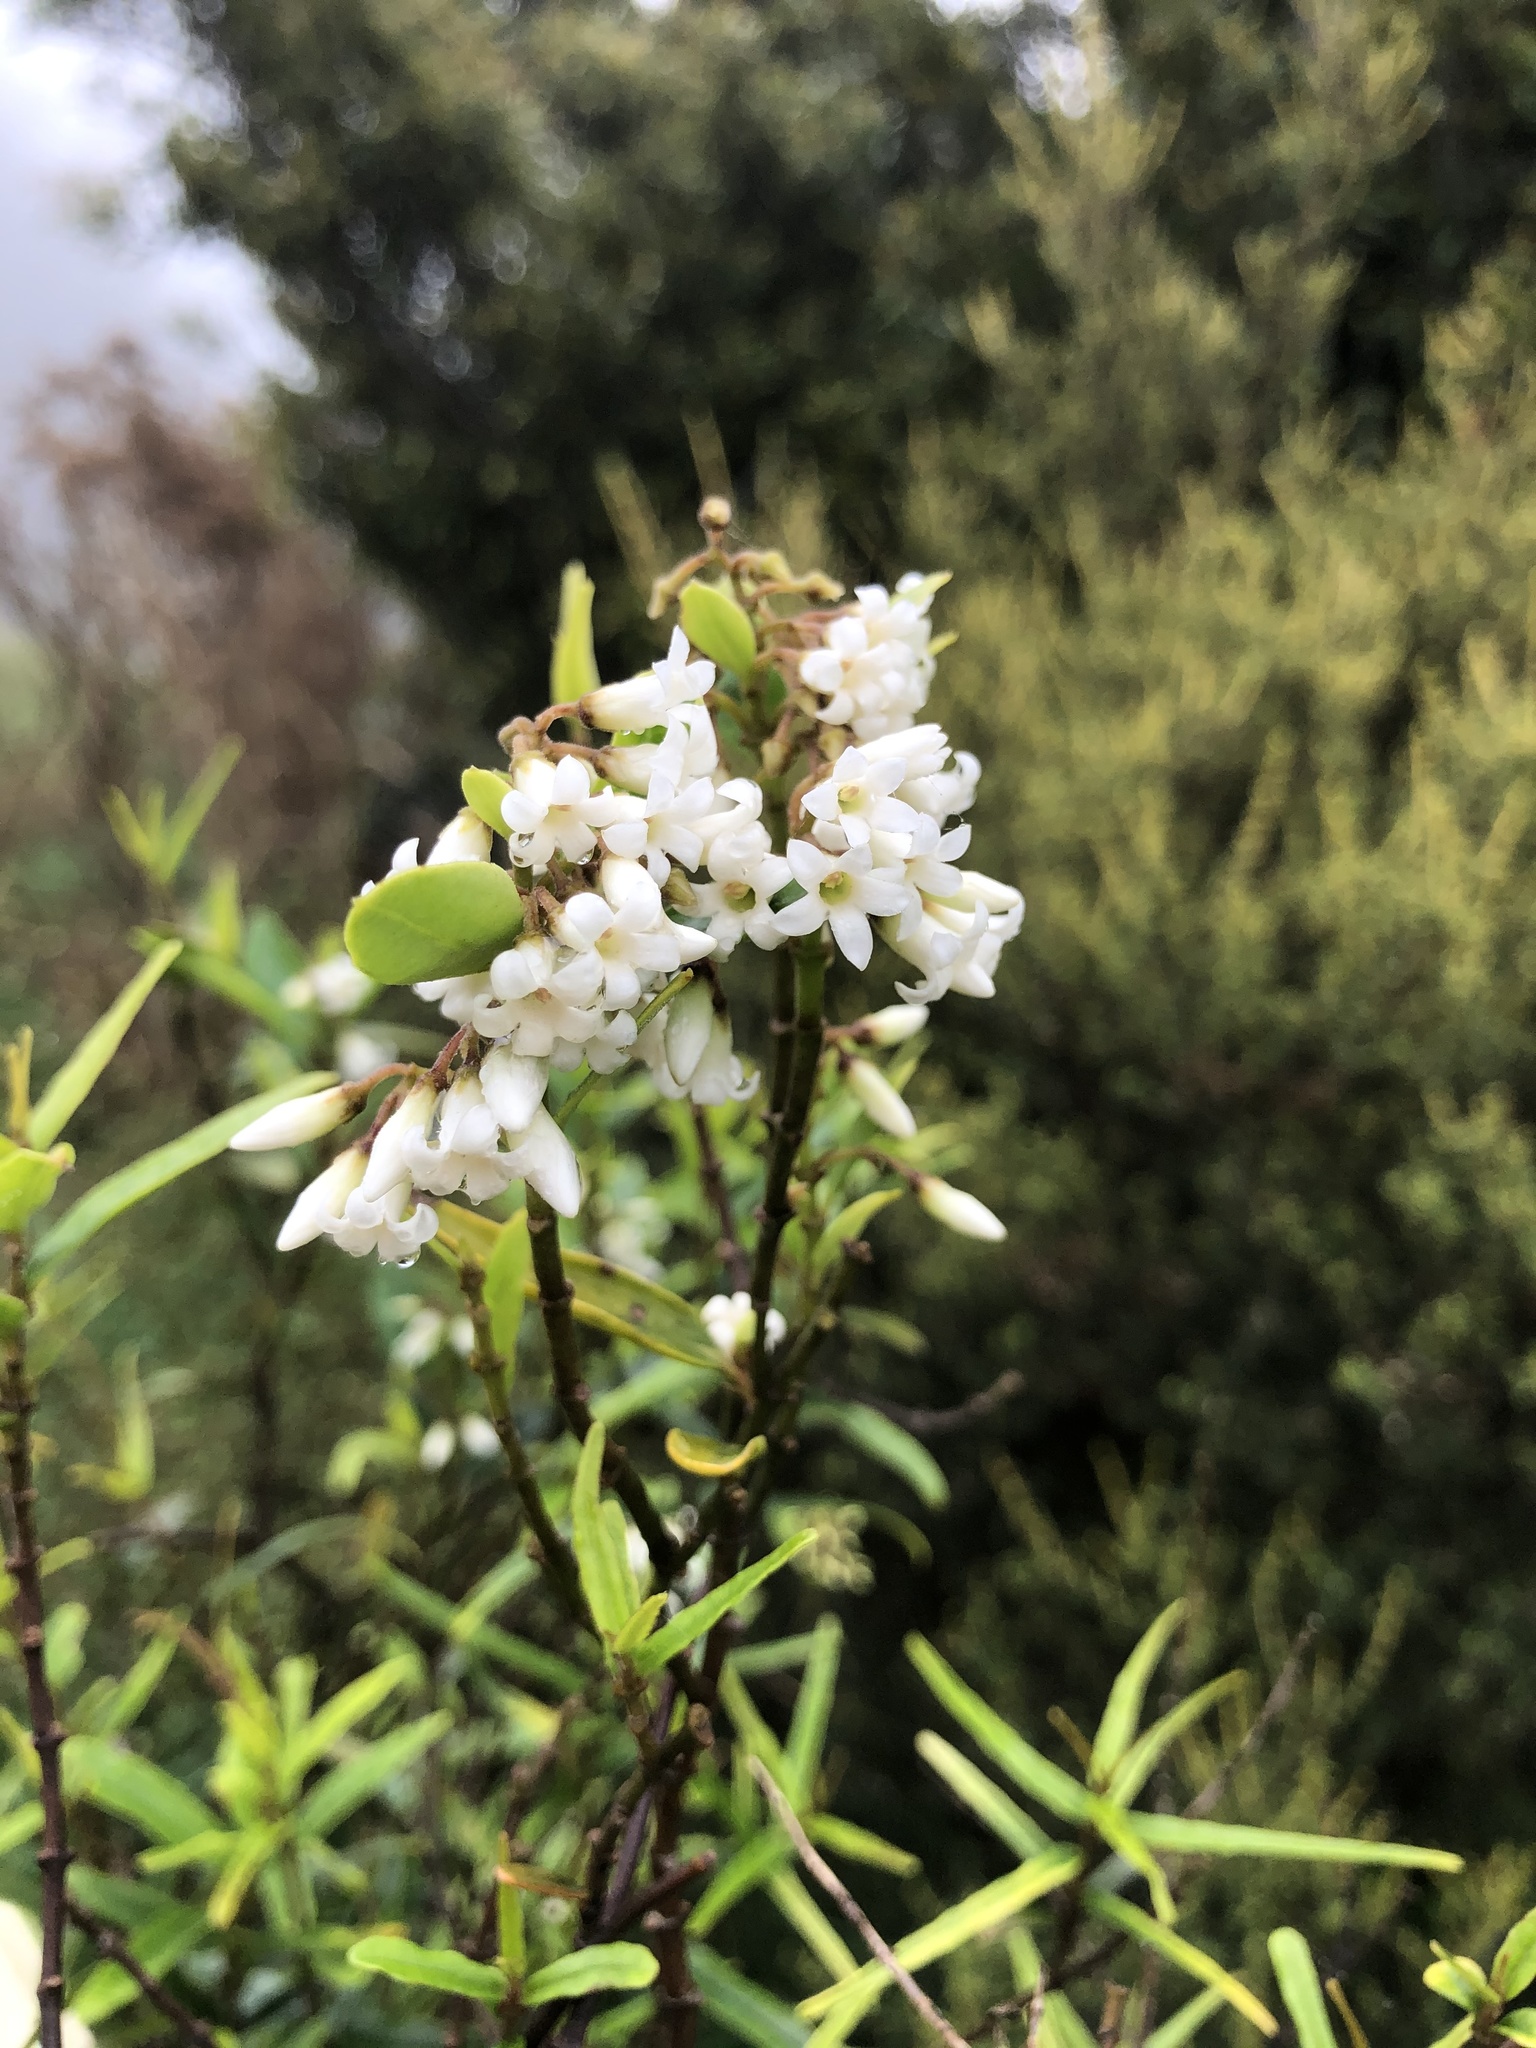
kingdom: Plantae
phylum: Tracheophyta
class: Magnoliopsida
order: Gentianales
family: Apocynaceae
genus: Parsonsia
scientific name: Parsonsia heterophylla
